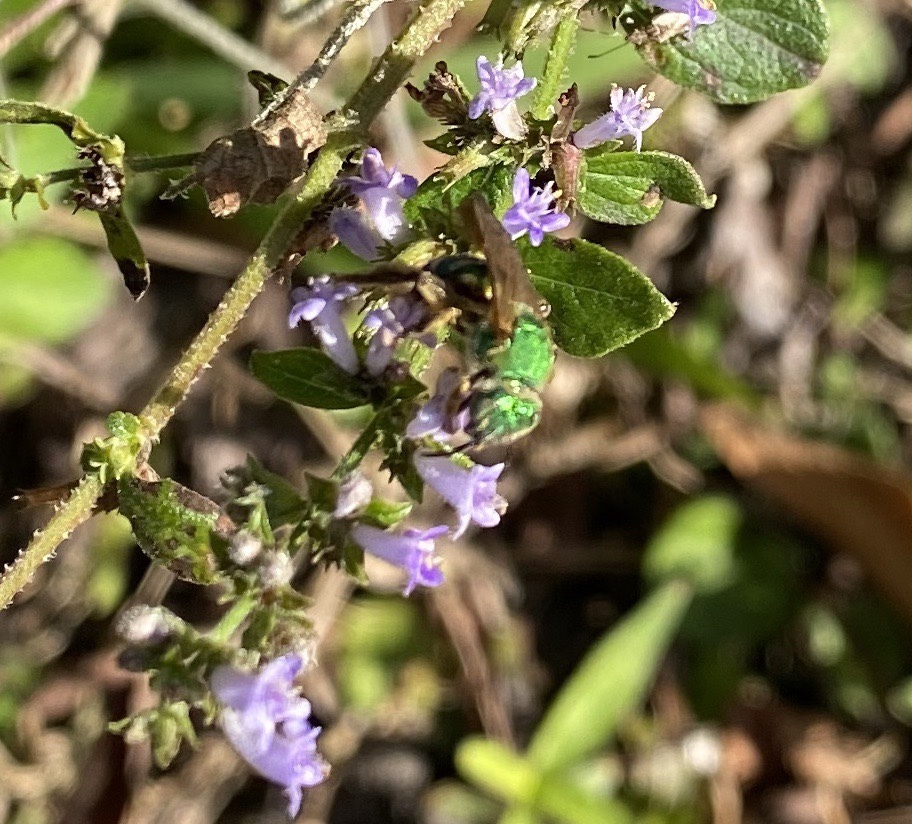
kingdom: Animalia
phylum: Arthropoda
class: Insecta
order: Hymenoptera
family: Halictidae
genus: Agapostemon
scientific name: Agapostemon splendens
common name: Brown-winged striped sweat bee
